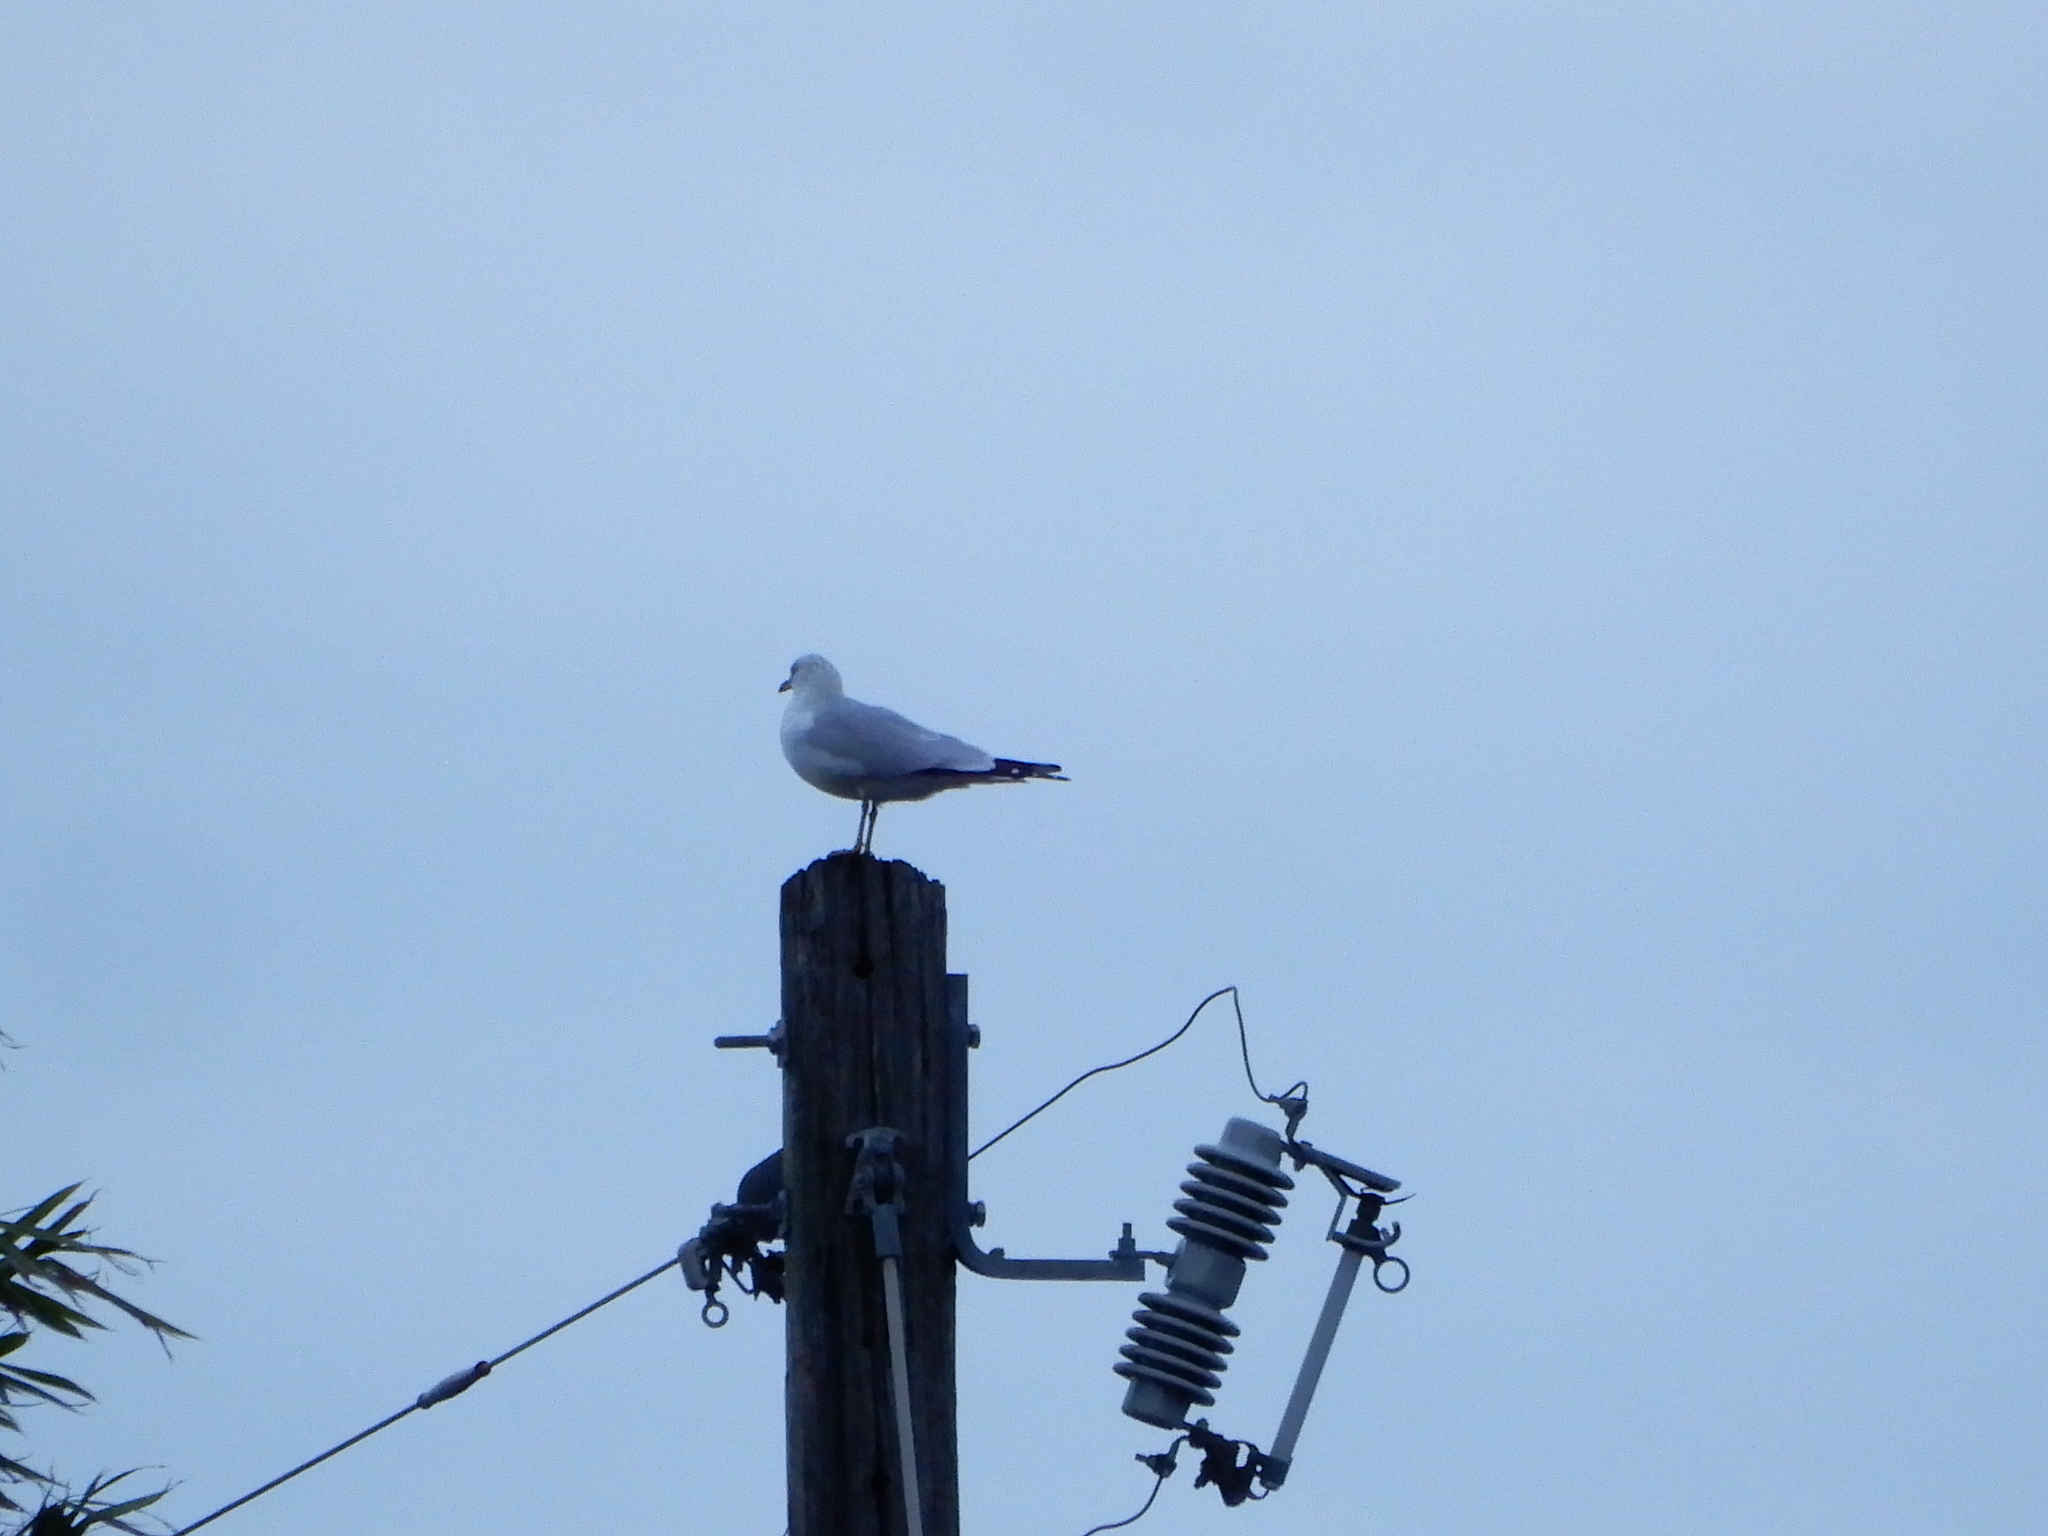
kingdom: Animalia
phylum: Chordata
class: Aves
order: Charadriiformes
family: Laridae
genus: Larus
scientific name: Larus delawarensis
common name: Ring-billed gull
